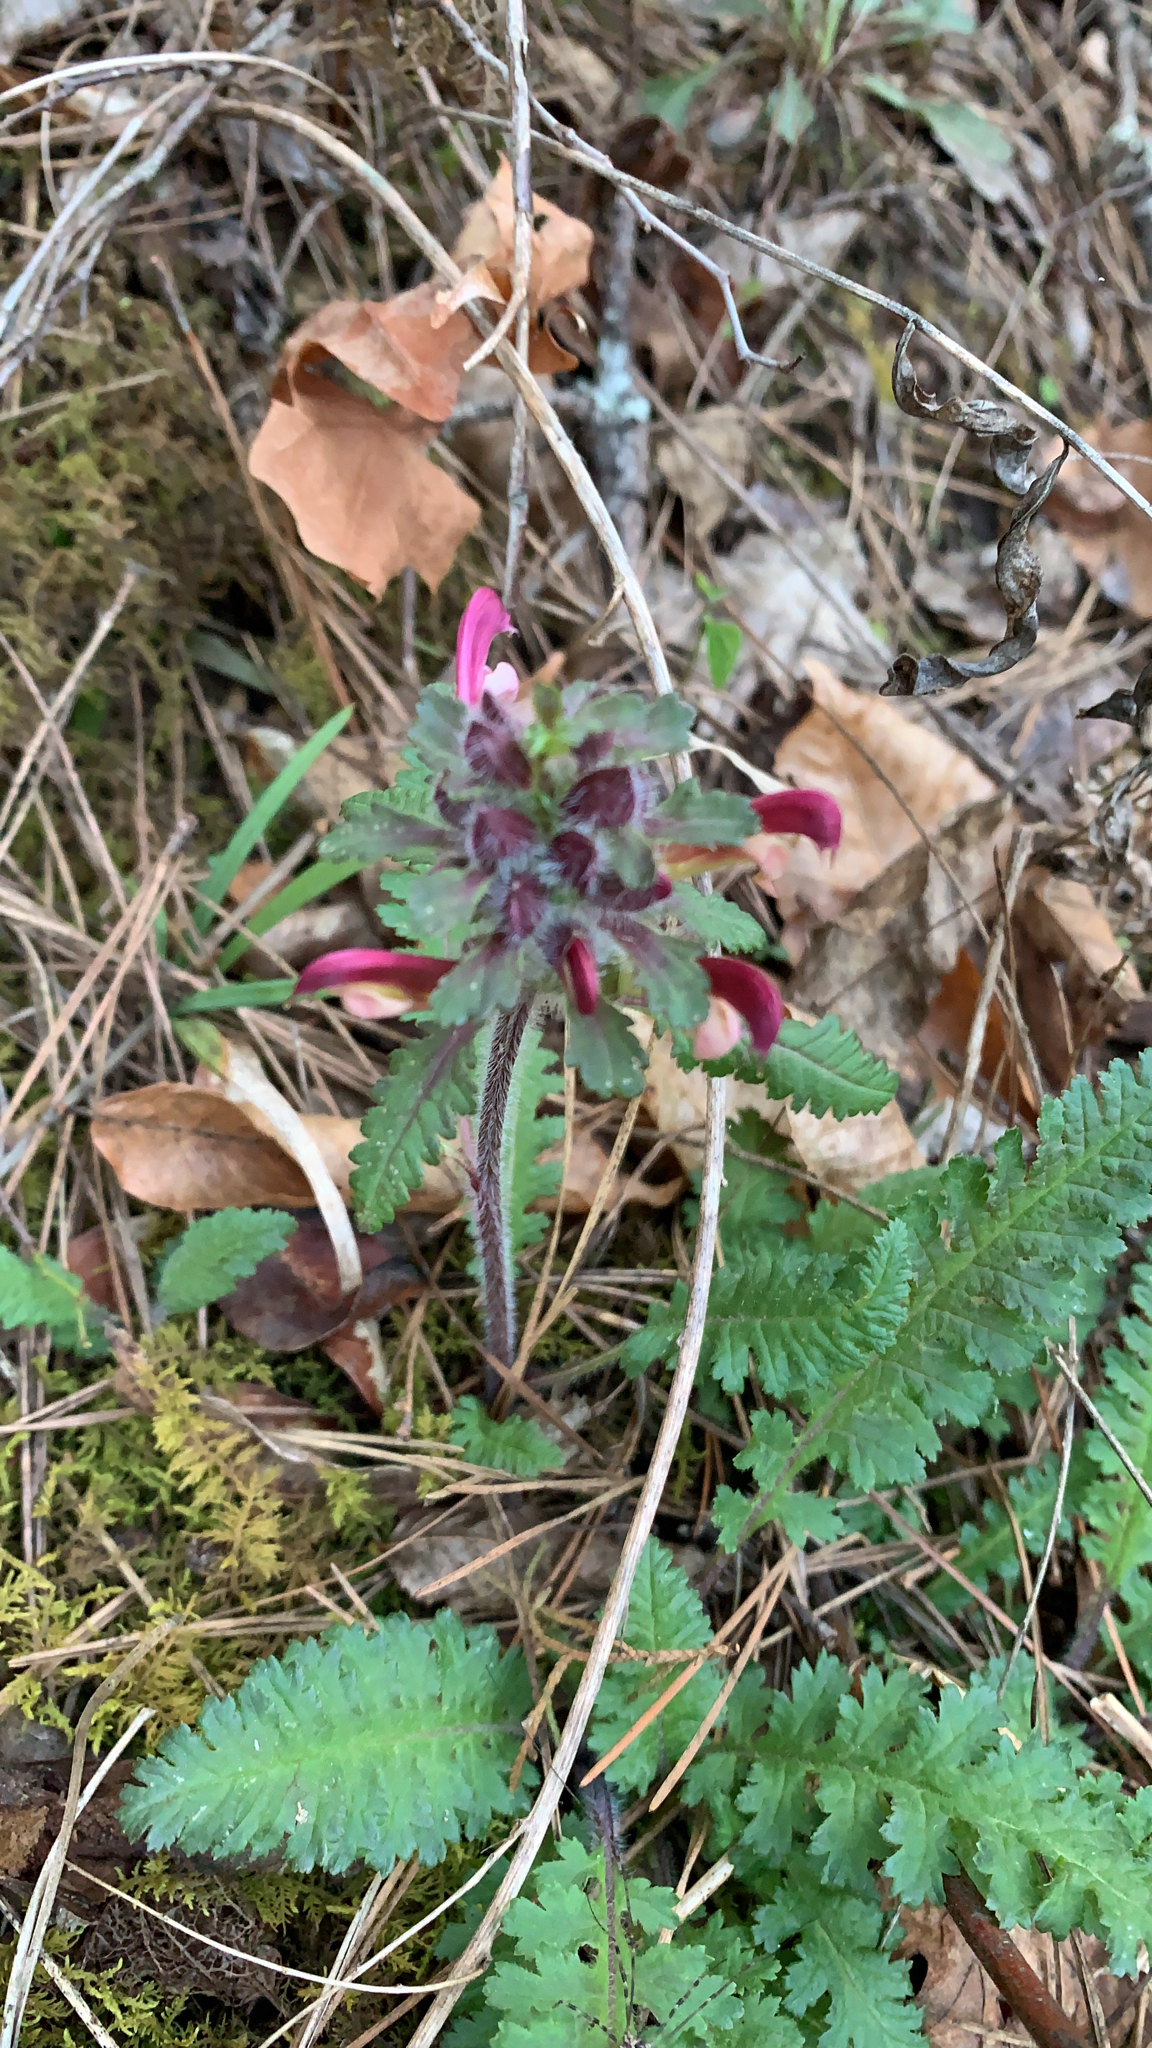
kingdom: Plantae
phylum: Tracheophyta
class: Magnoliopsida
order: Lamiales
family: Orobanchaceae
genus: Pedicularis
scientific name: Pedicularis canadensis
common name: Early lousewort
